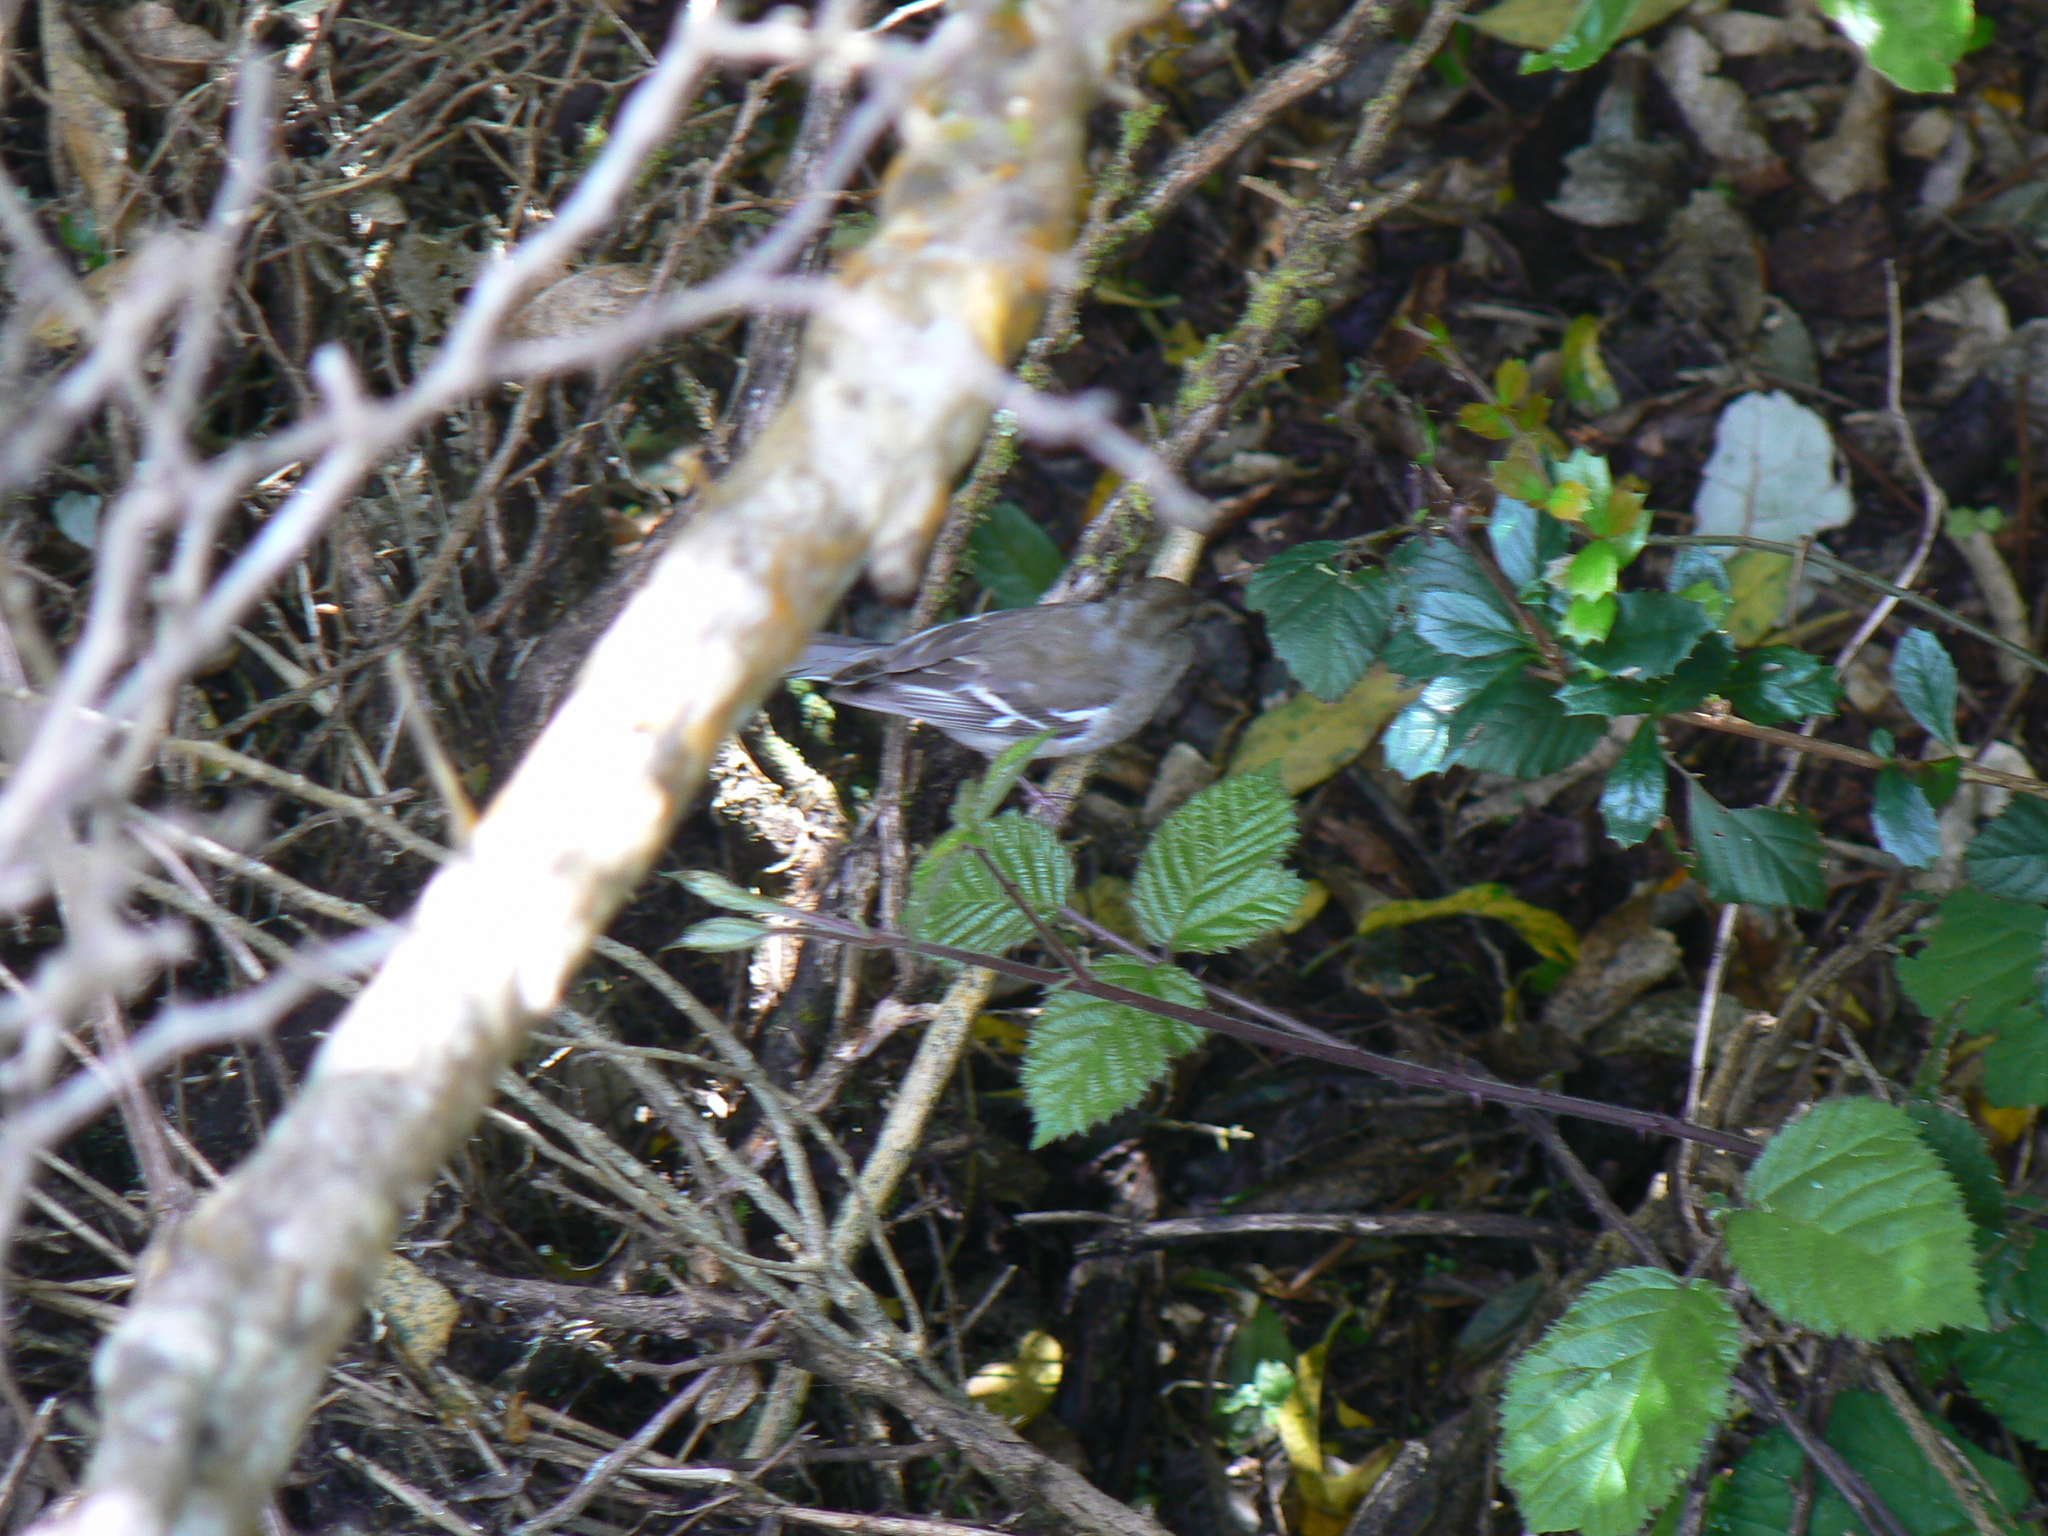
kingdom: Animalia
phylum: Chordata
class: Aves
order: Passeriformes
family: Fringillidae
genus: Fringilla
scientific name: Fringilla coelebs
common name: Common chaffinch
